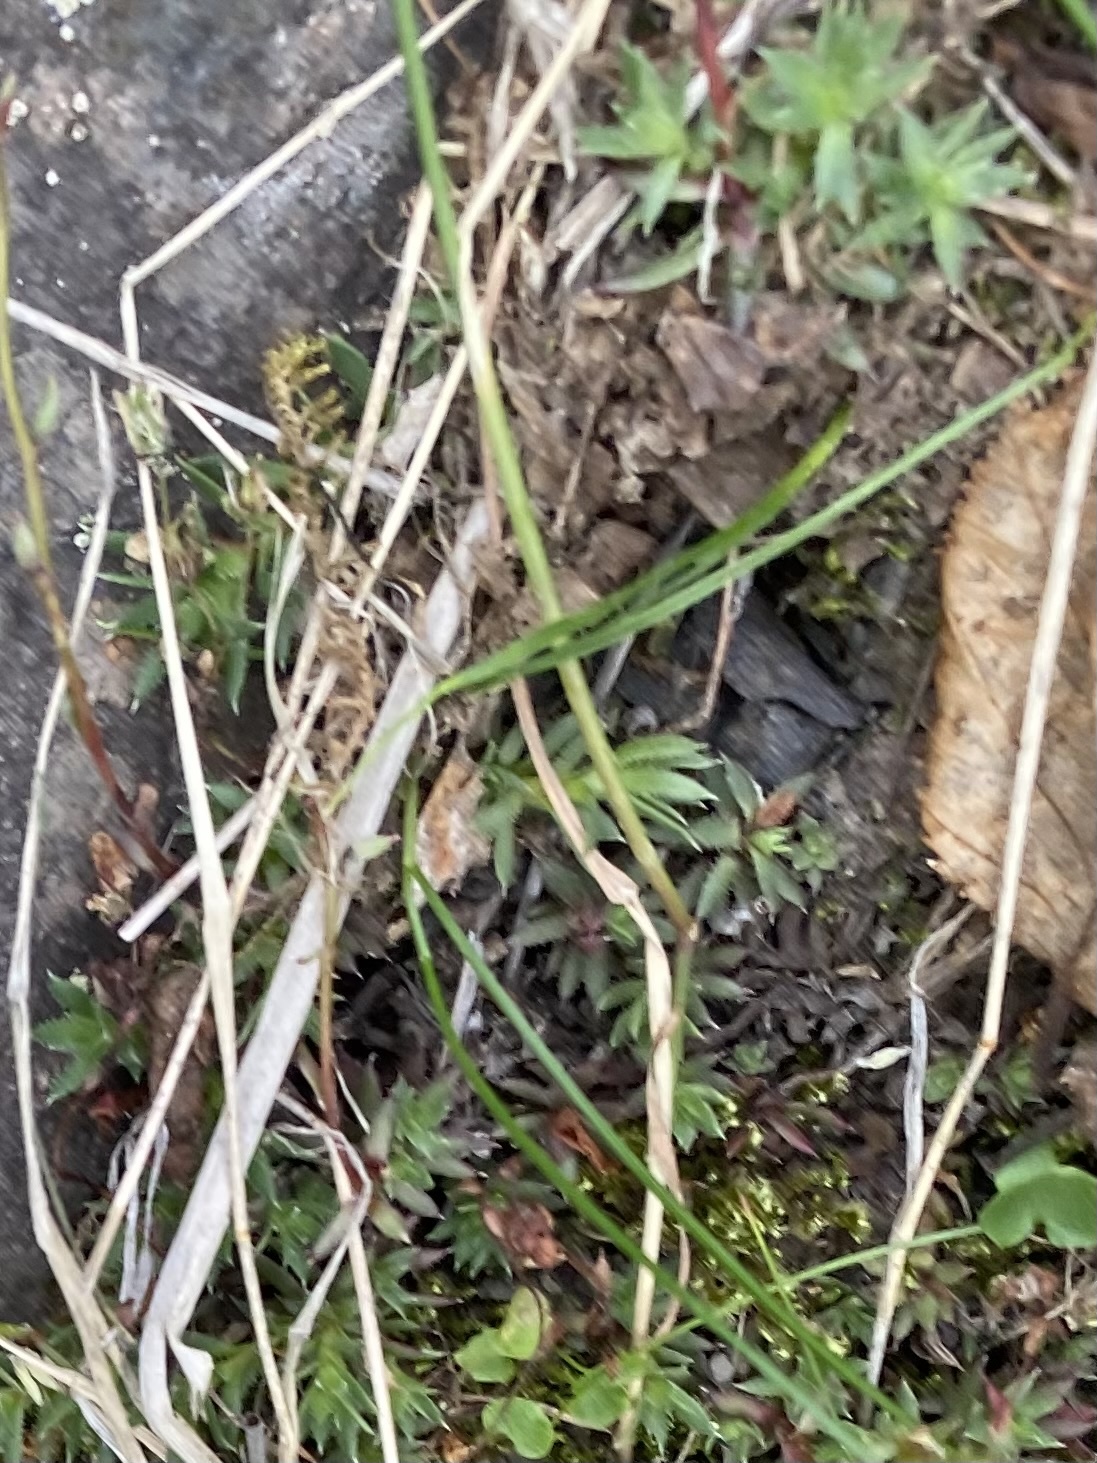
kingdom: Plantae
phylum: Tracheophyta
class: Magnoliopsida
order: Saxifragales
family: Saxifragaceae
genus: Saxifraga
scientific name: Saxifraga
